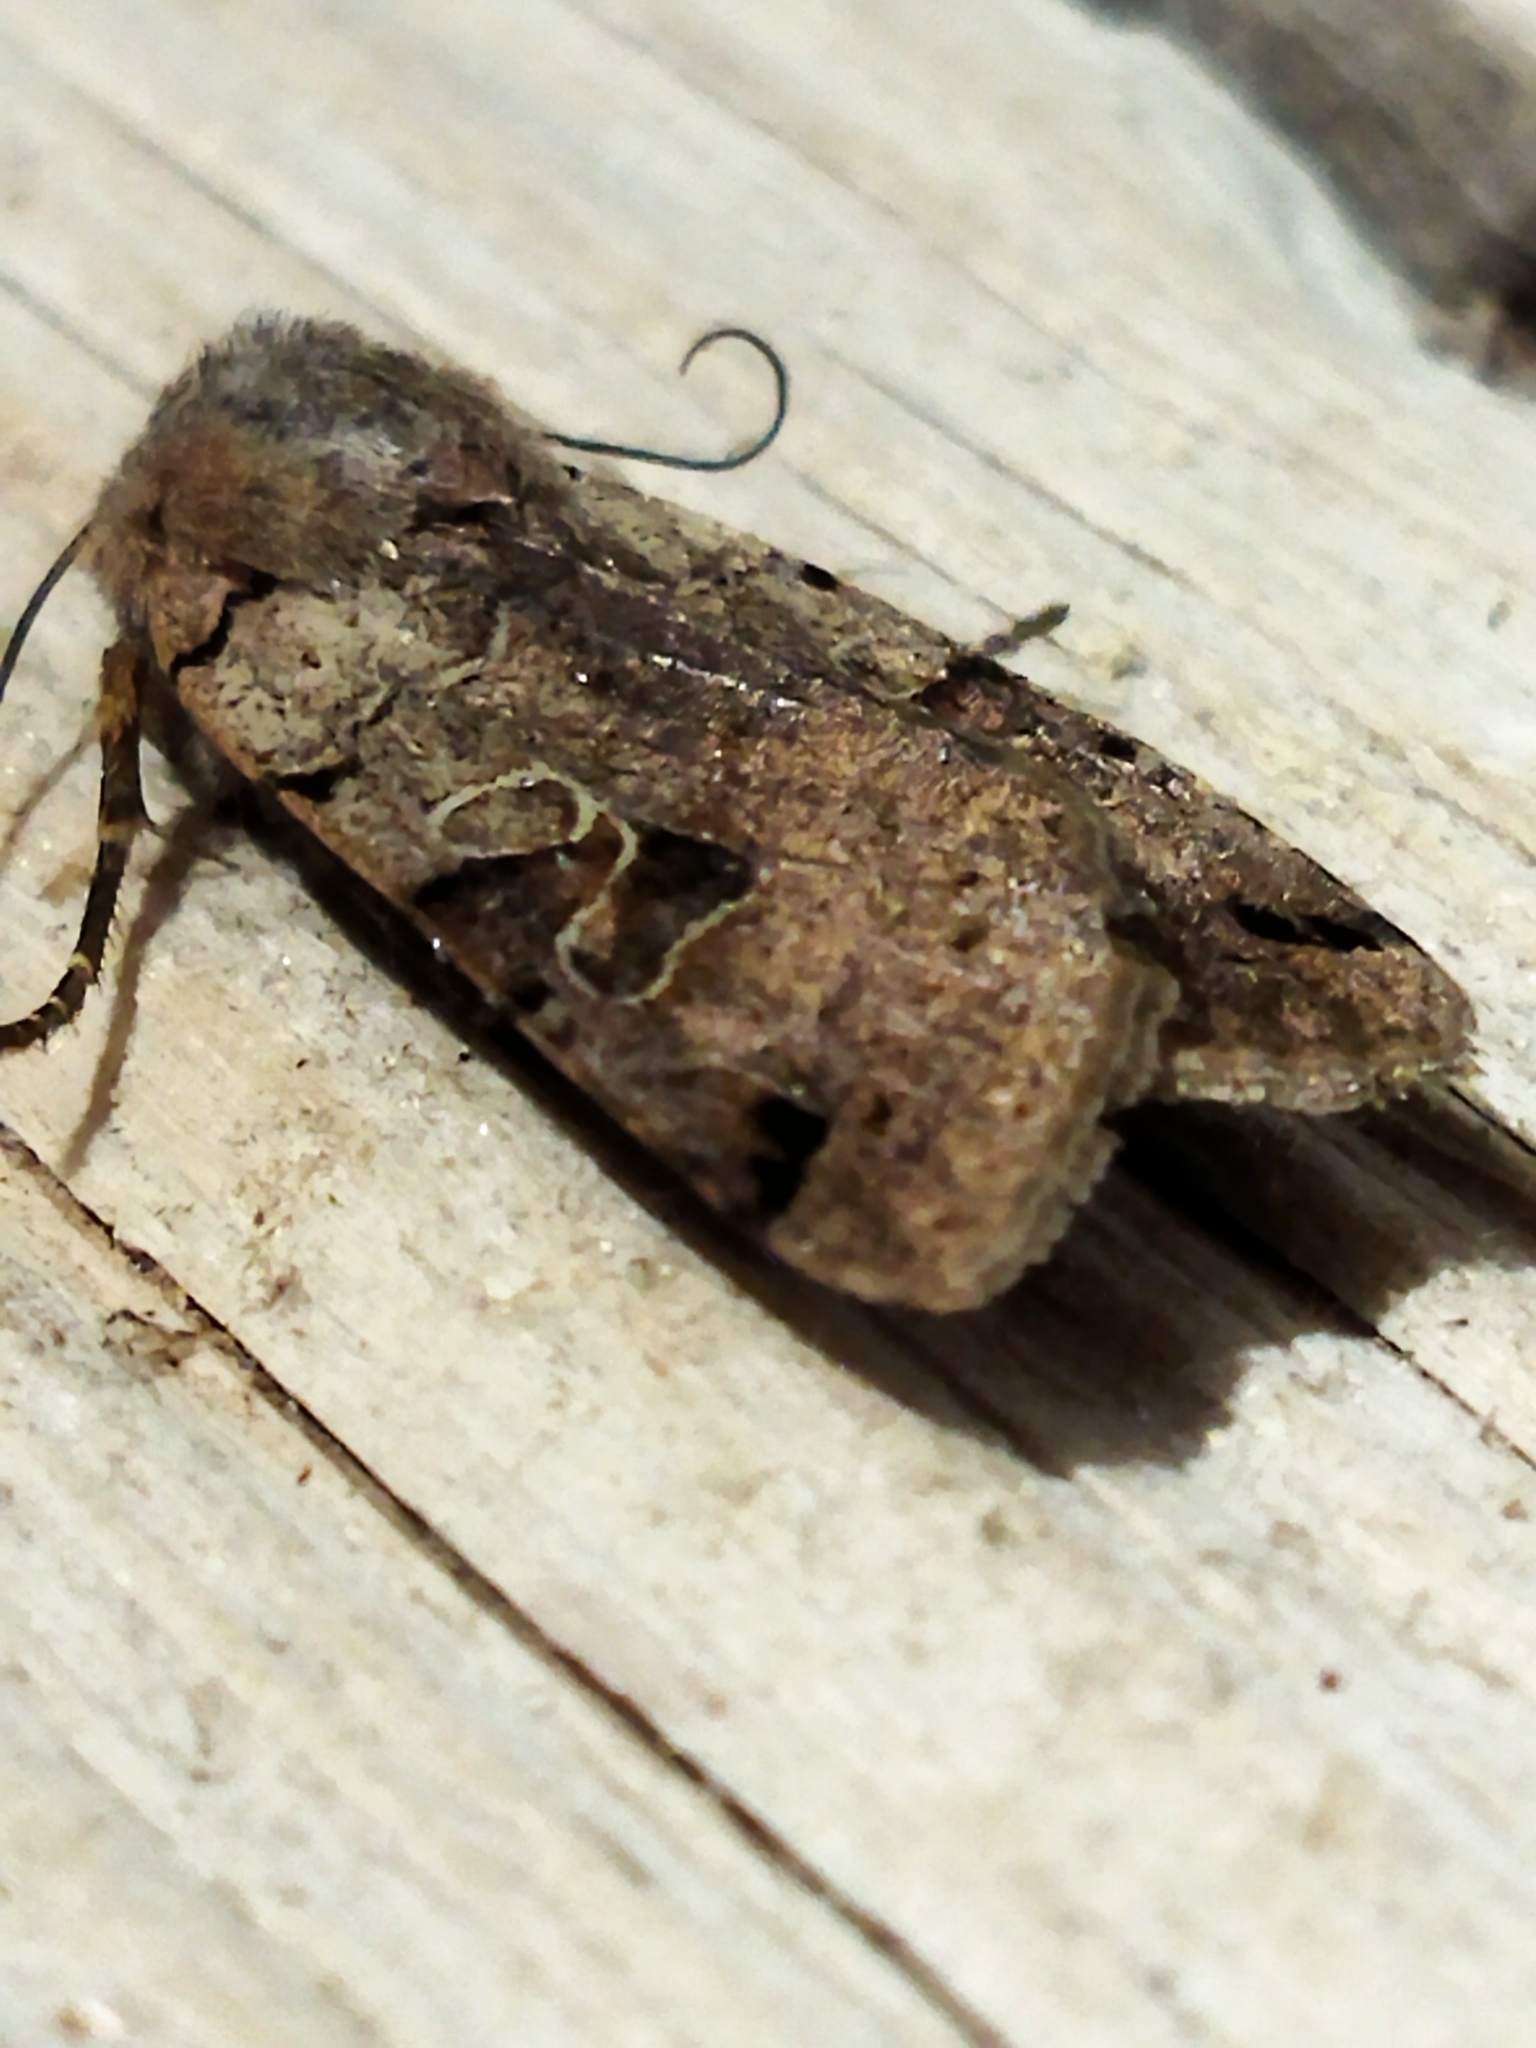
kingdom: Animalia
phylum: Arthropoda
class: Insecta
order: Lepidoptera
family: Noctuidae
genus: Agrochola
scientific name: Agrochola litura
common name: Brown-spot pinion
